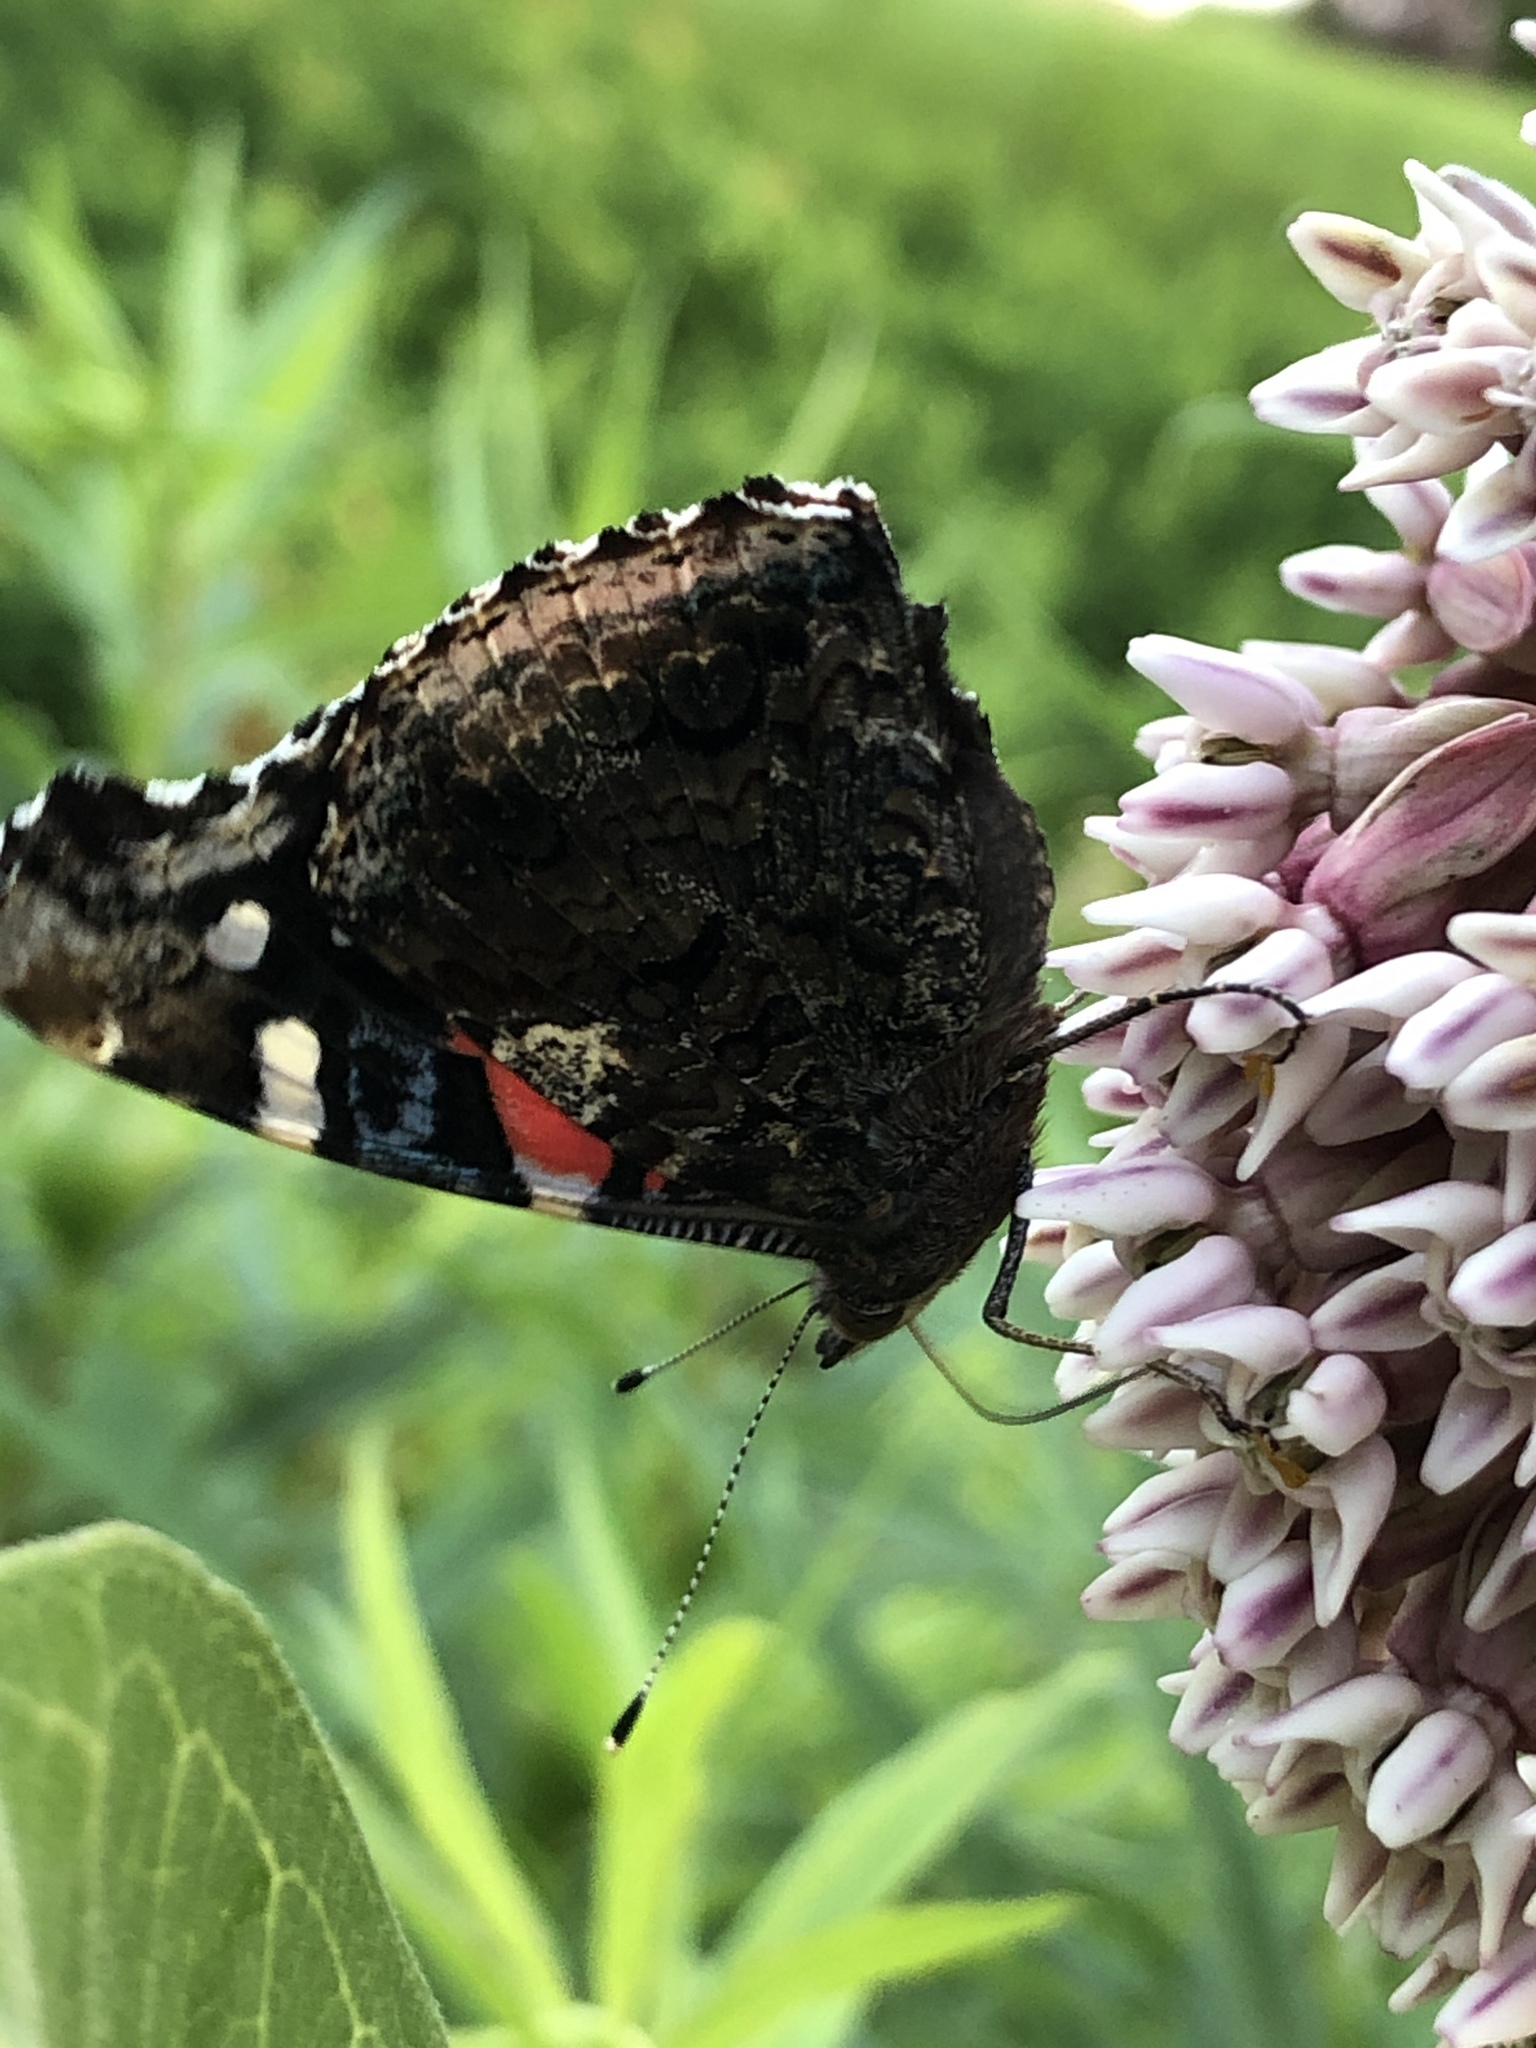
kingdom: Animalia
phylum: Arthropoda
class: Insecta
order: Lepidoptera
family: Nymphalidae
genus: Vanessa
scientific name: Vanessa atalanta
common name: Red admiral
